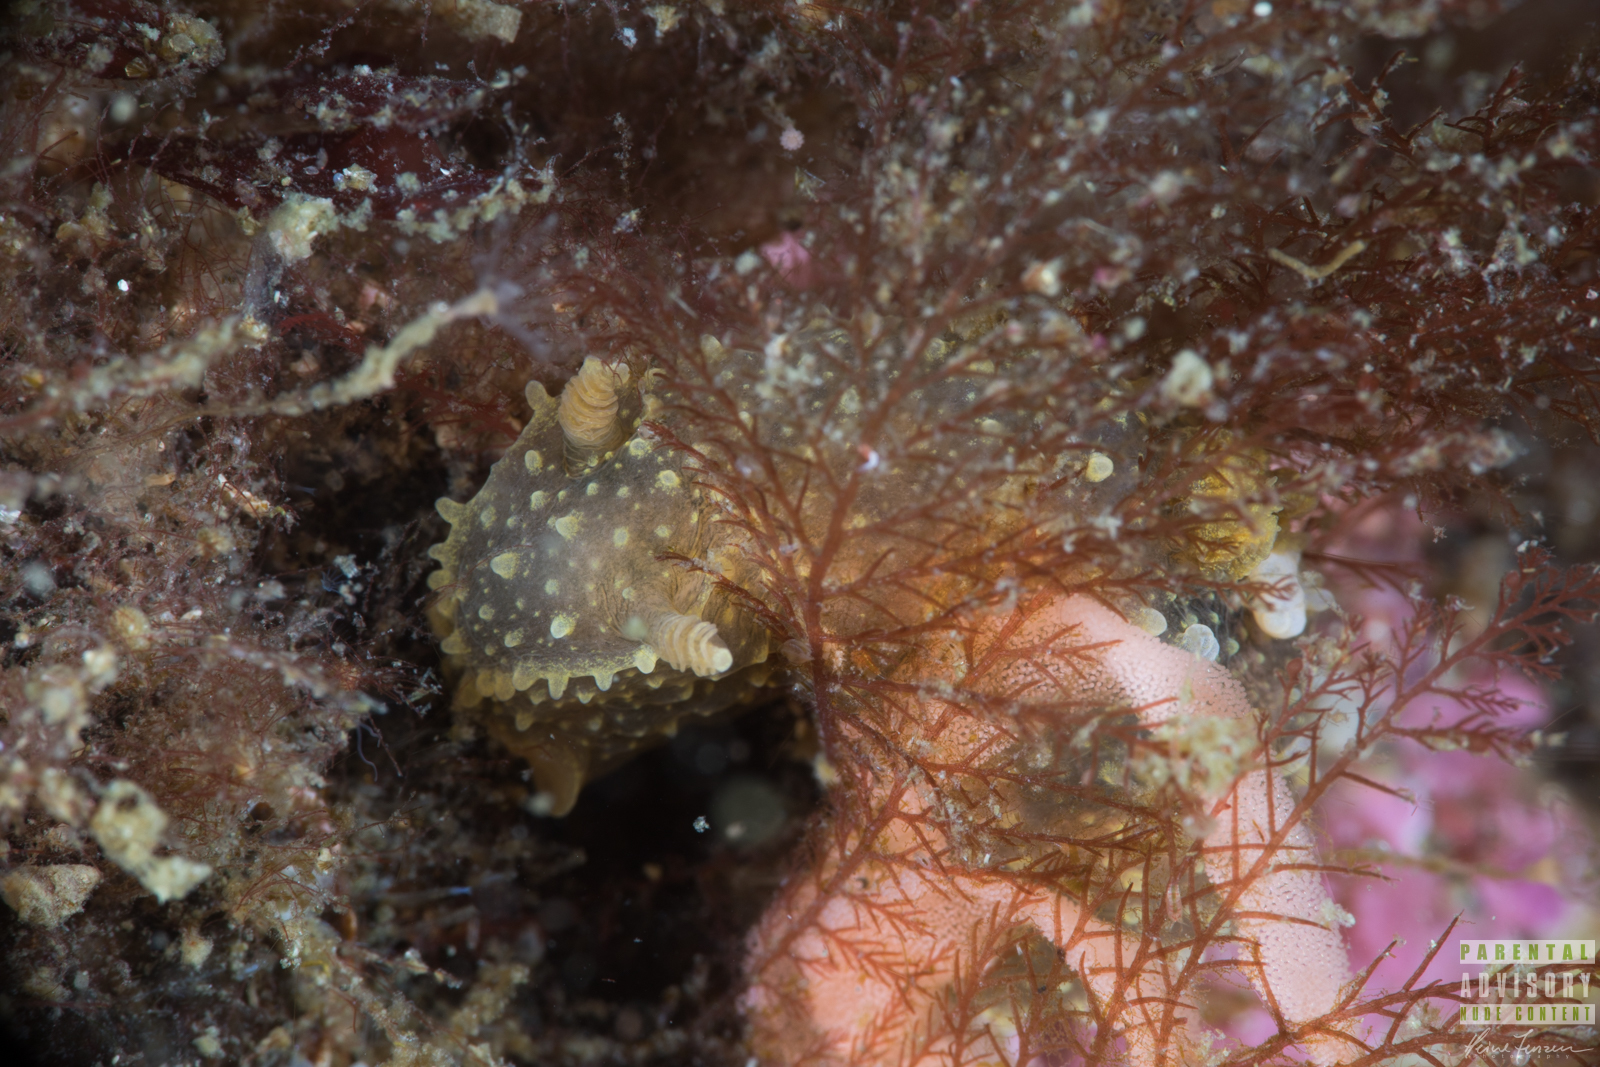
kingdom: Animalia
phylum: Mollusca
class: Gastropoda
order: Nudibranchia
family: Polyceridae
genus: Palio
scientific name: Palio dubia
